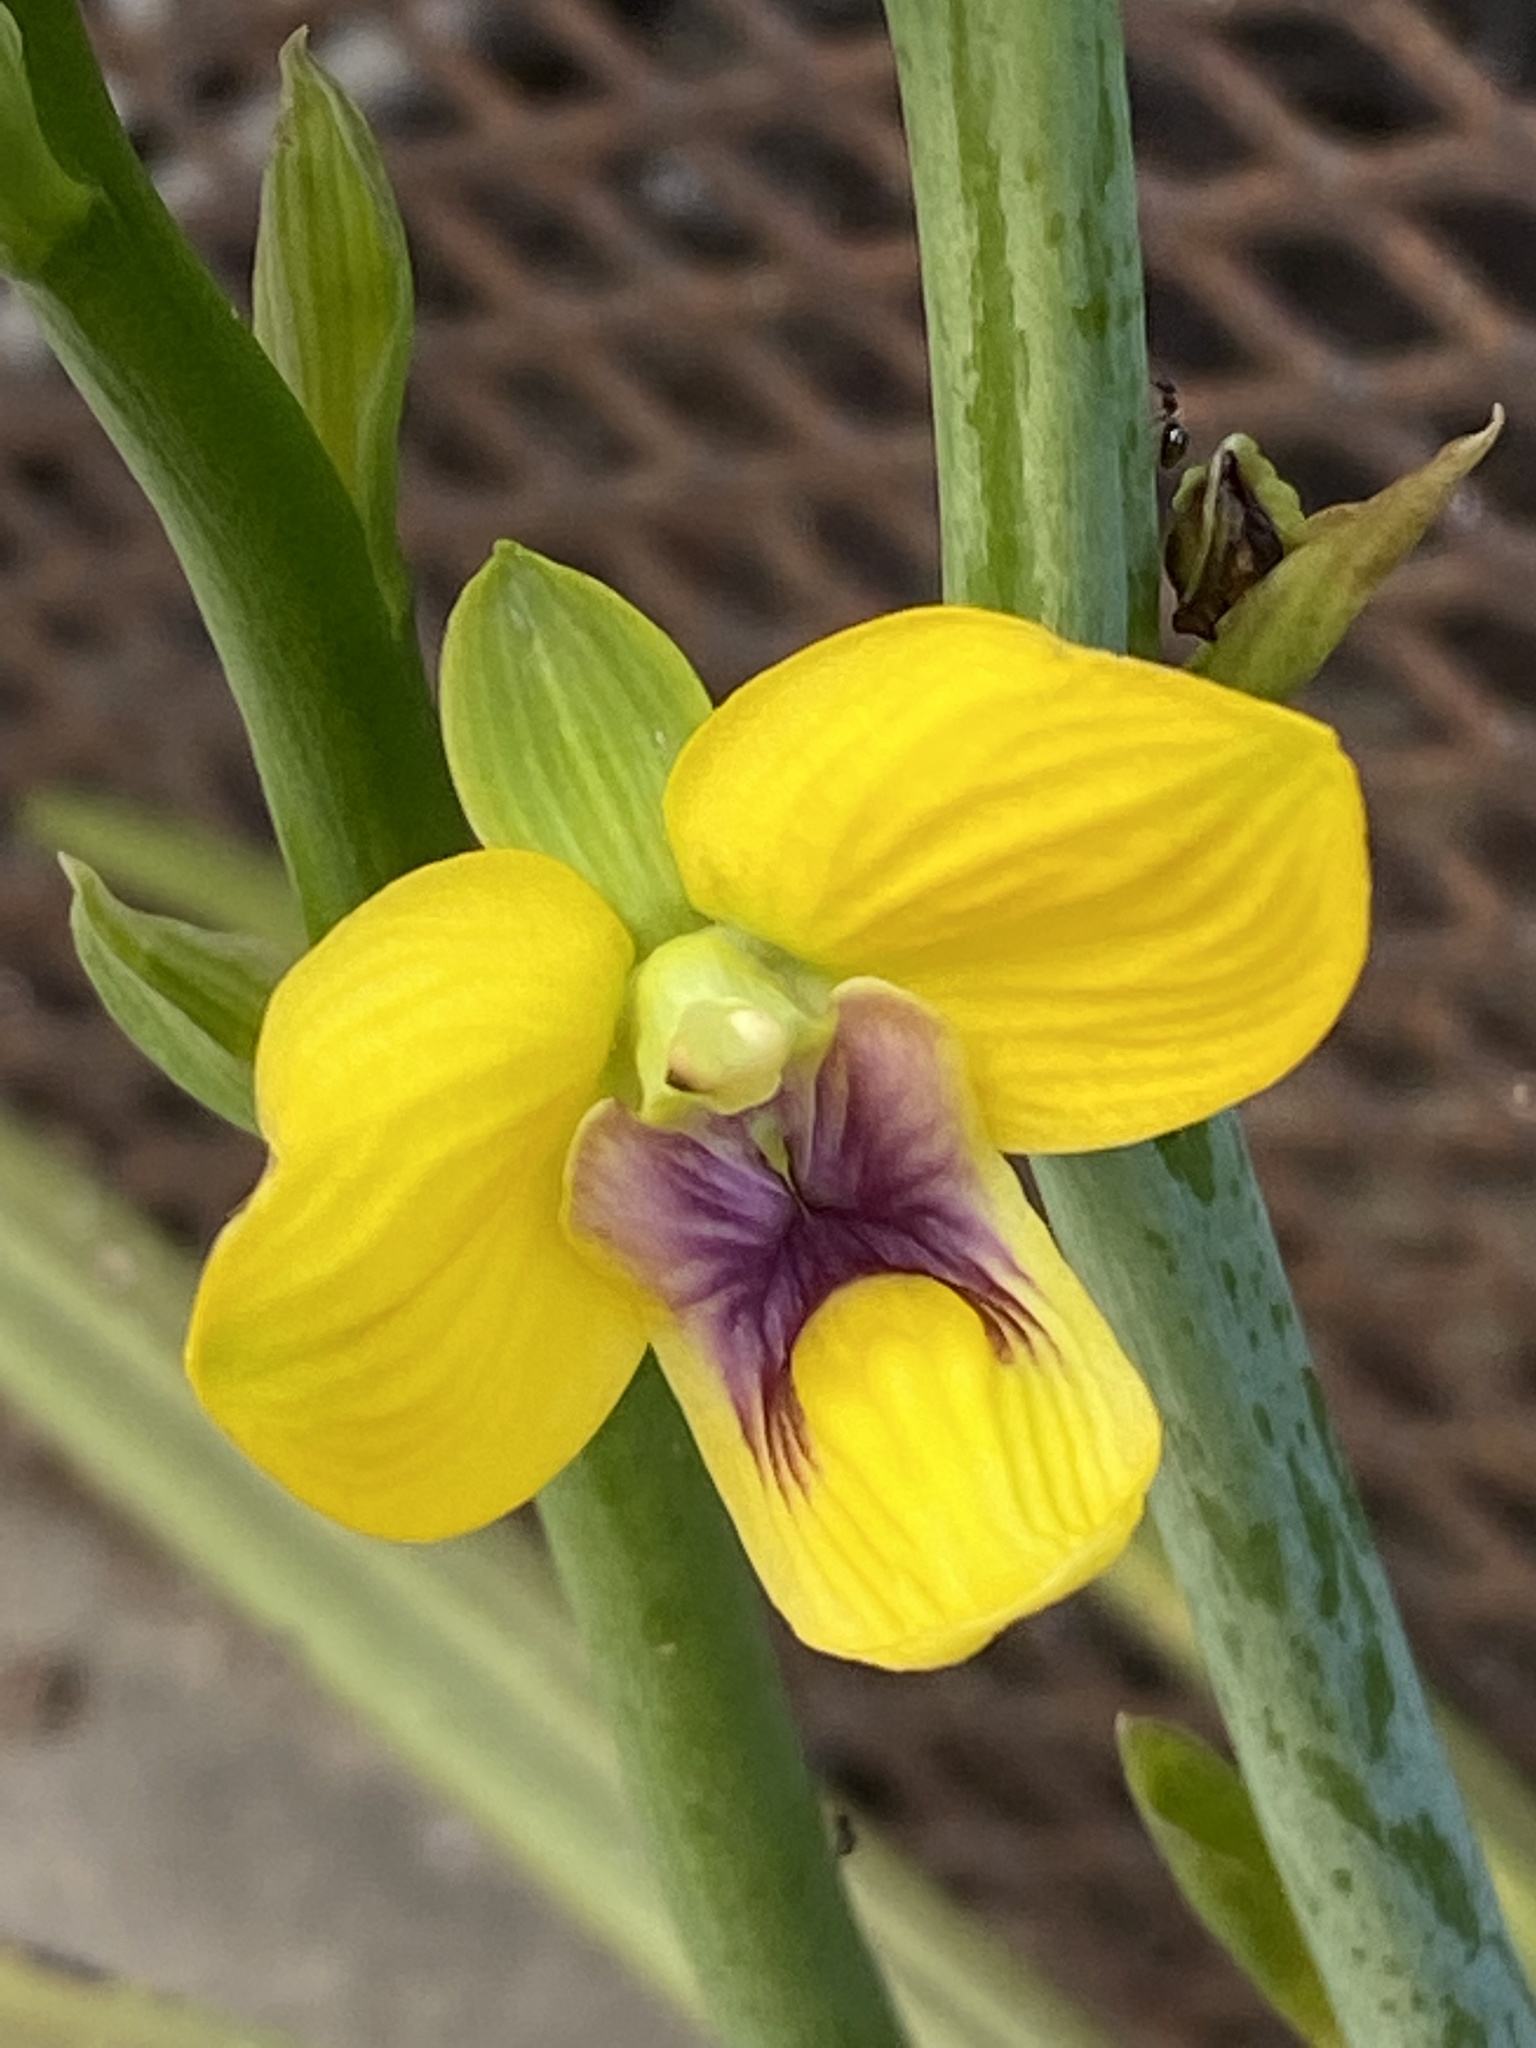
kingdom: Plantae
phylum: Tracheophyta
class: Liliopsida
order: Asparagales
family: Orchidaceae
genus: Eulophia
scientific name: Eulophia speciosa
